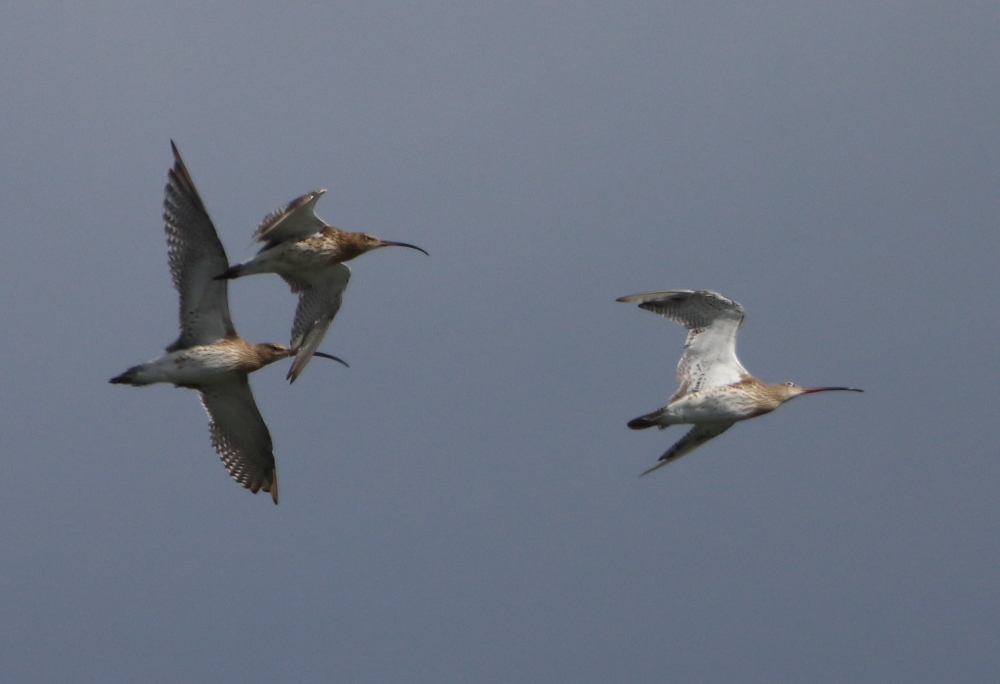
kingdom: Animalia
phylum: Chordata
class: Aves
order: Charadriiformes
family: Scolopacidae
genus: Numenius
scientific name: Numenius arquata
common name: Eurasian curlew
